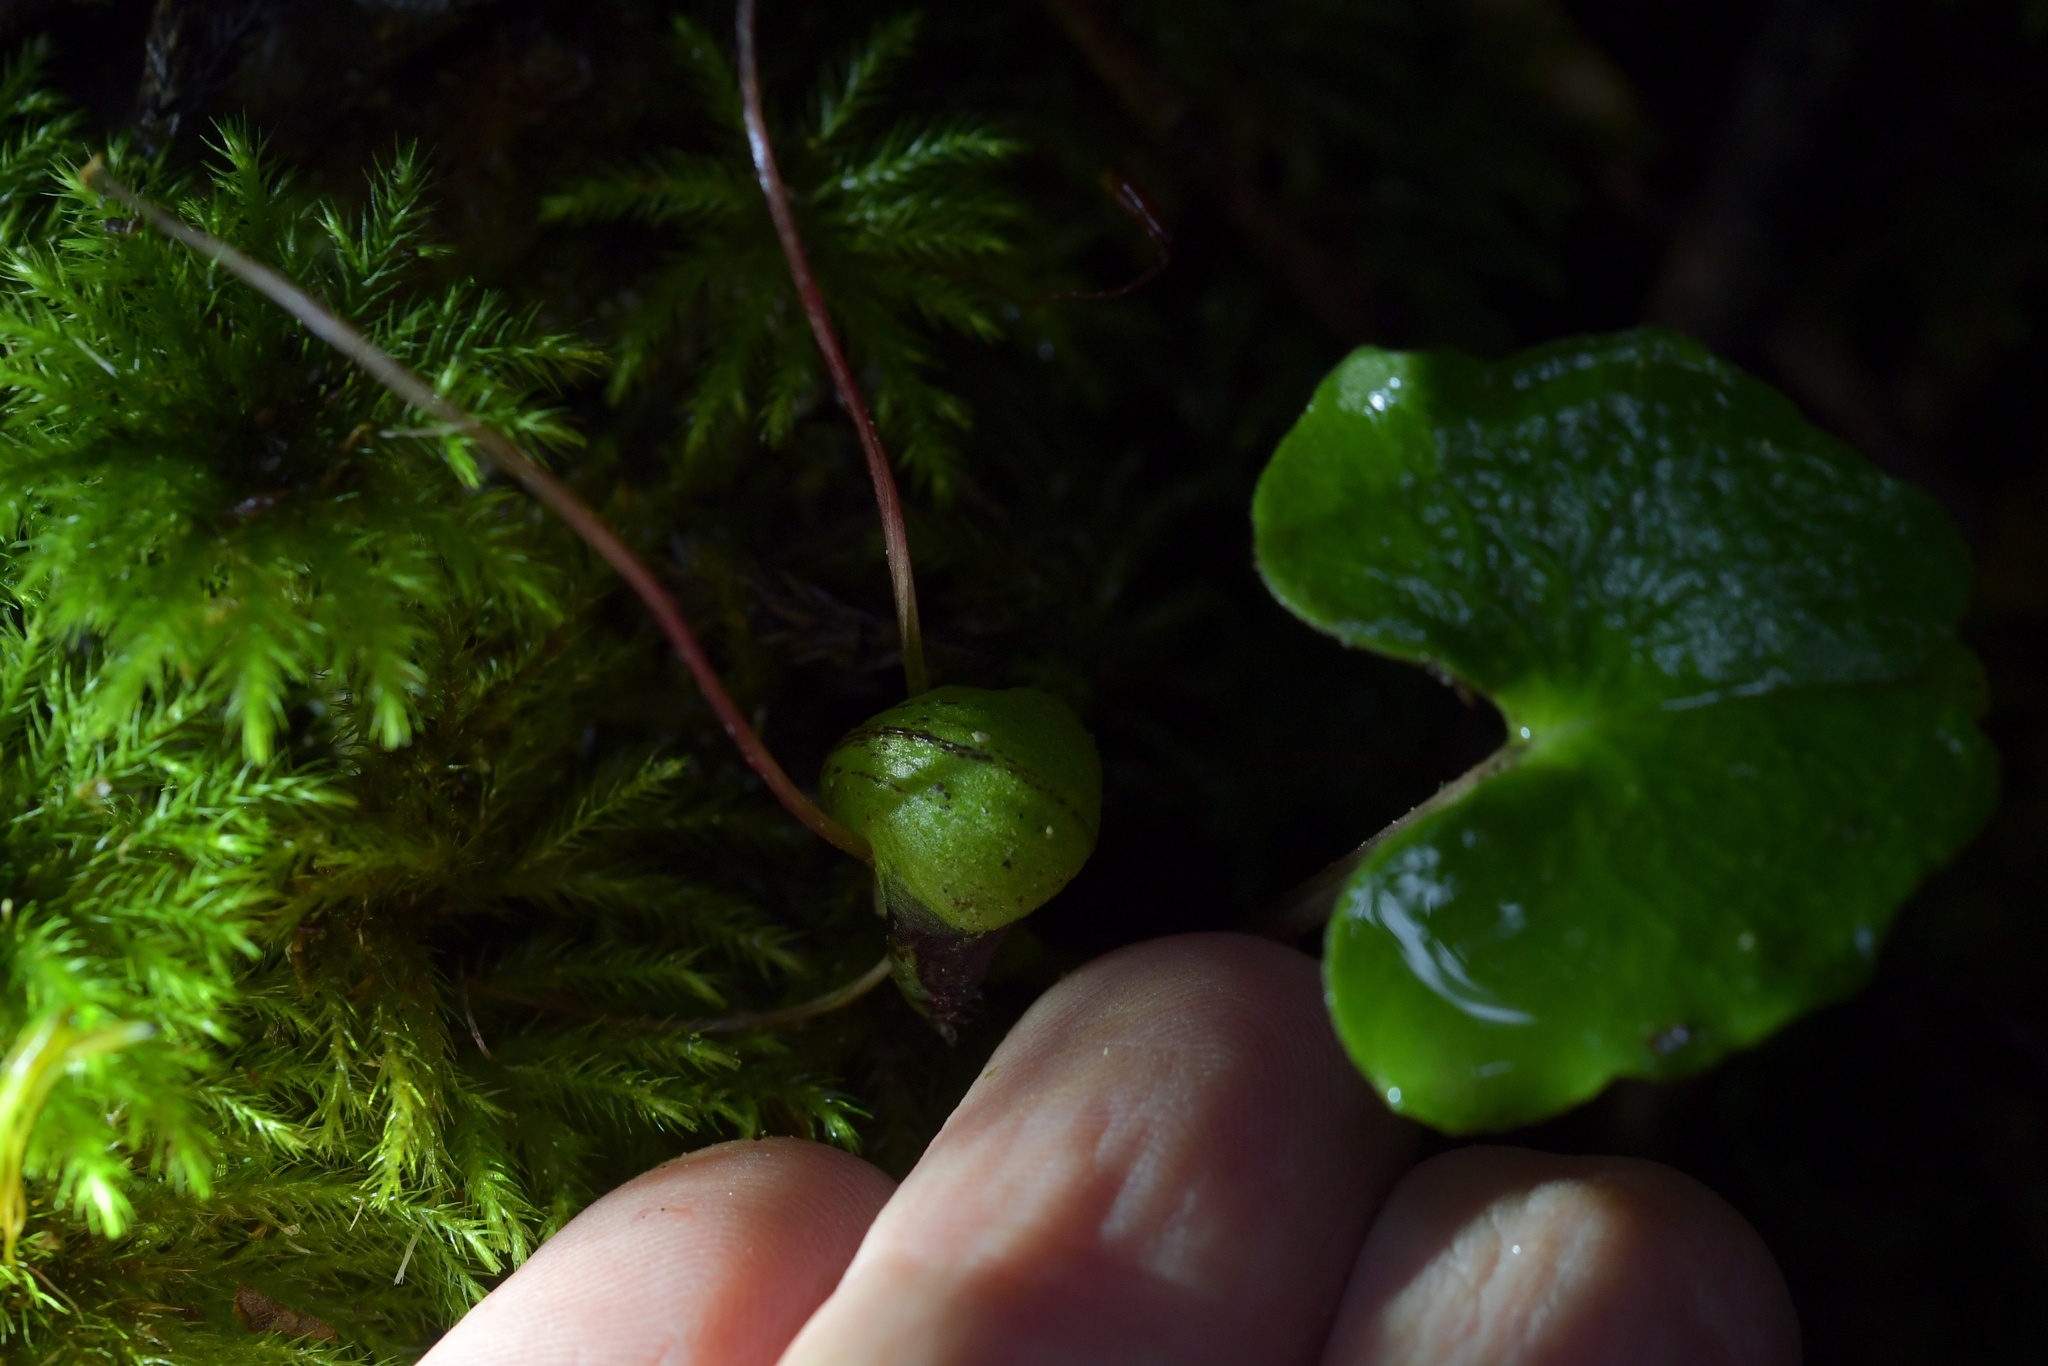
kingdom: Plantae
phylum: Tracheophyta
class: Liliopsida
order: Asparagales
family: Orchidaceae
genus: Corybas
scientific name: Corybas vitreus
